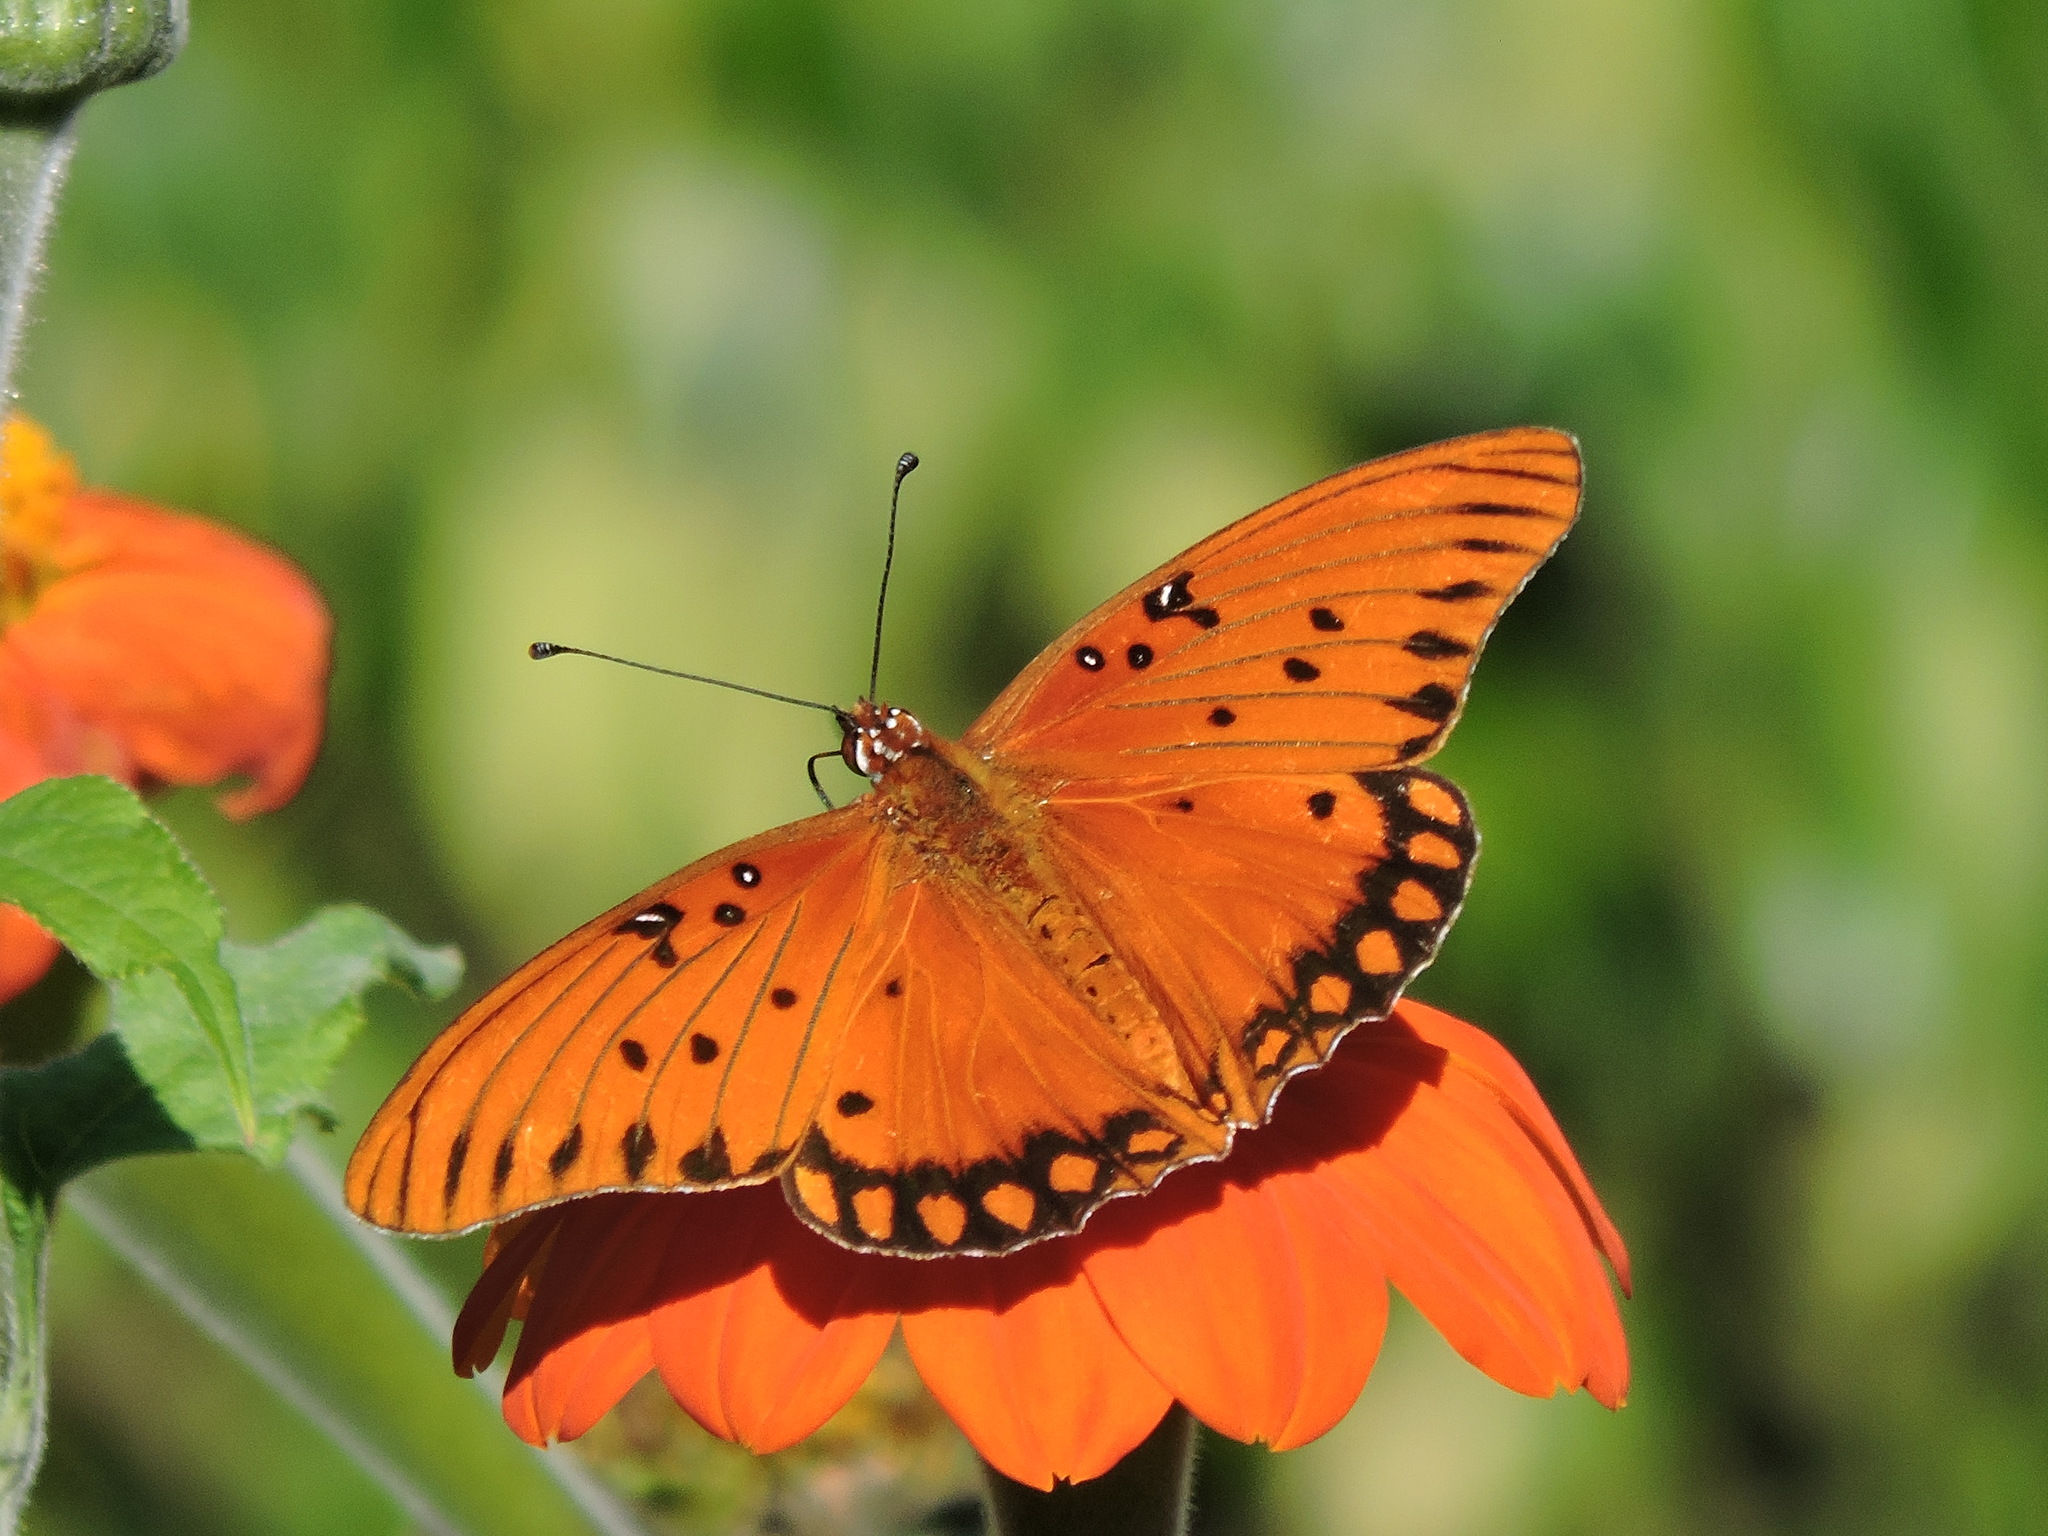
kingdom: Animalia
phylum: Arthropoda
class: Insecta
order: Lepidoptera
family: Nymphalidae
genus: Dione
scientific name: Dione vanillae
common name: Gulf fritillary
